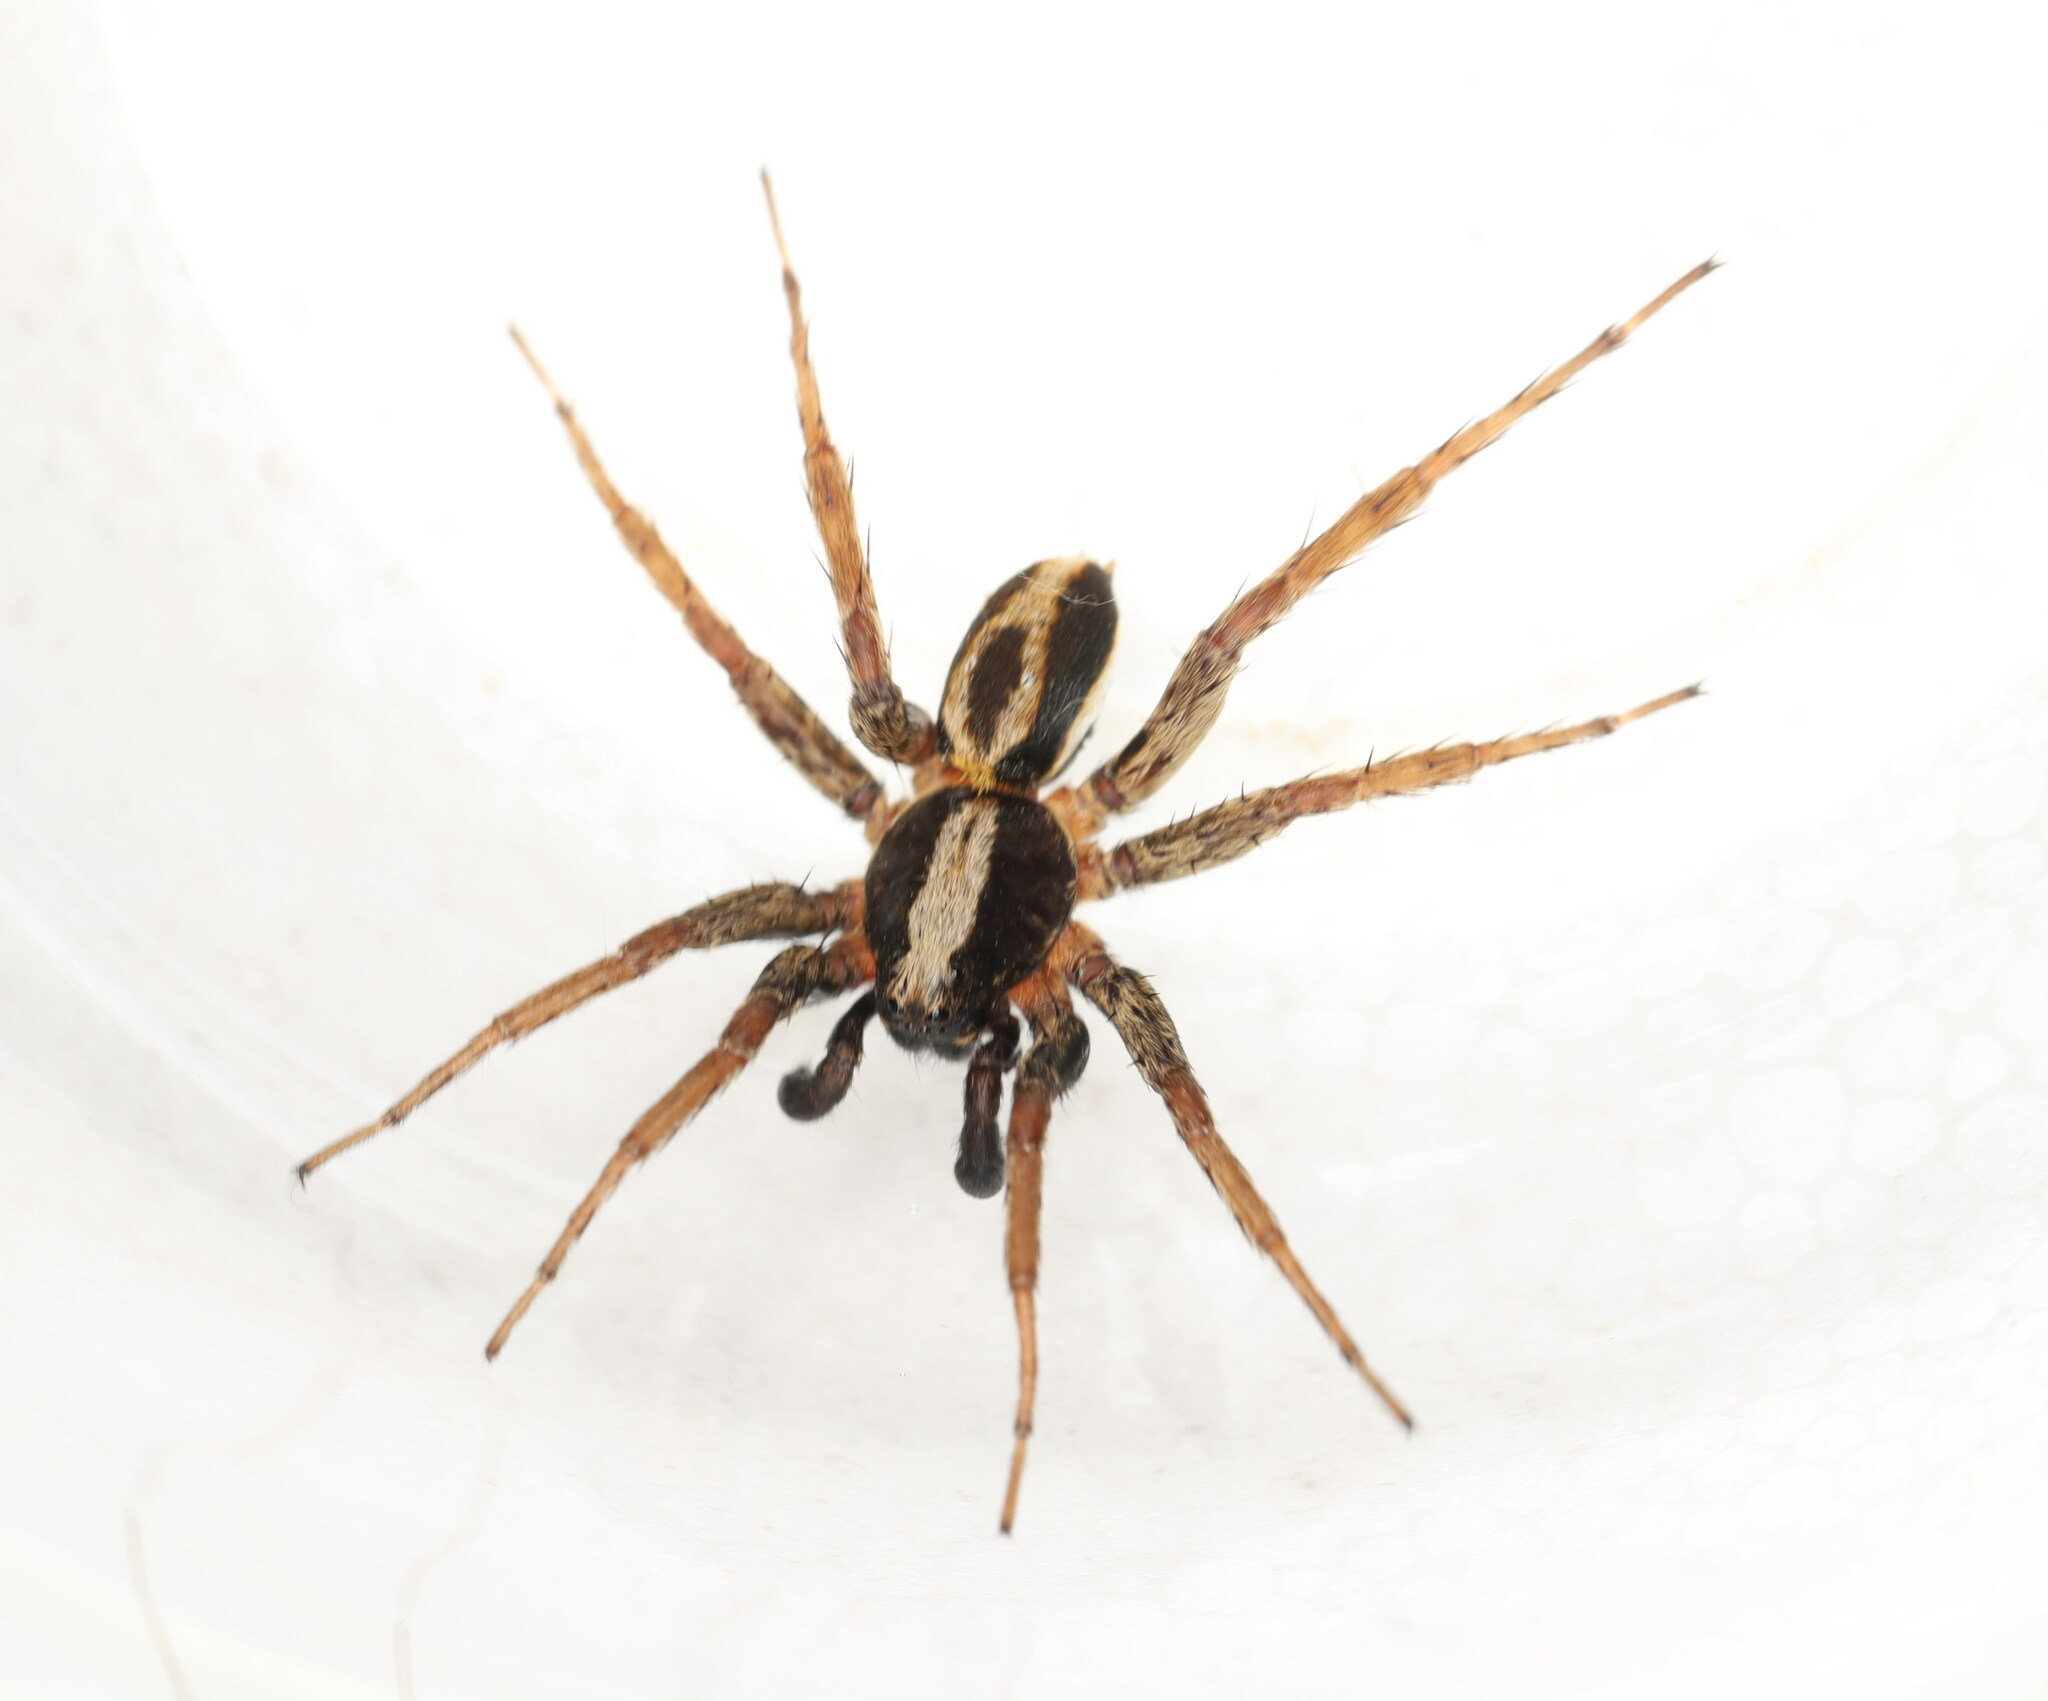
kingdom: Animalia
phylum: Arthropoda
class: Arachnida
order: Araneae
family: Lycosidae
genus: Alopecosa
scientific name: Alopecosa albofasciata
